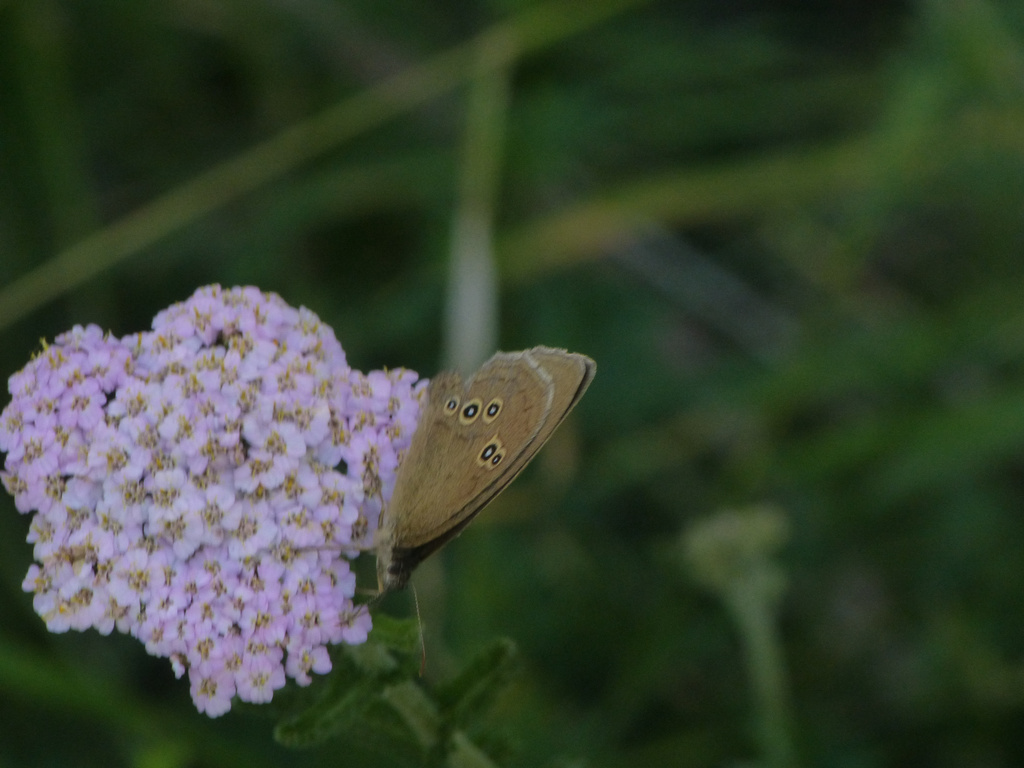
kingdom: Animalia
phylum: Arthropoda
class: Insecta
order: Lepidoptera
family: Nymphalidae
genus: Aphantopus
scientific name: Aphantopus hyperantus
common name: Ringlet
